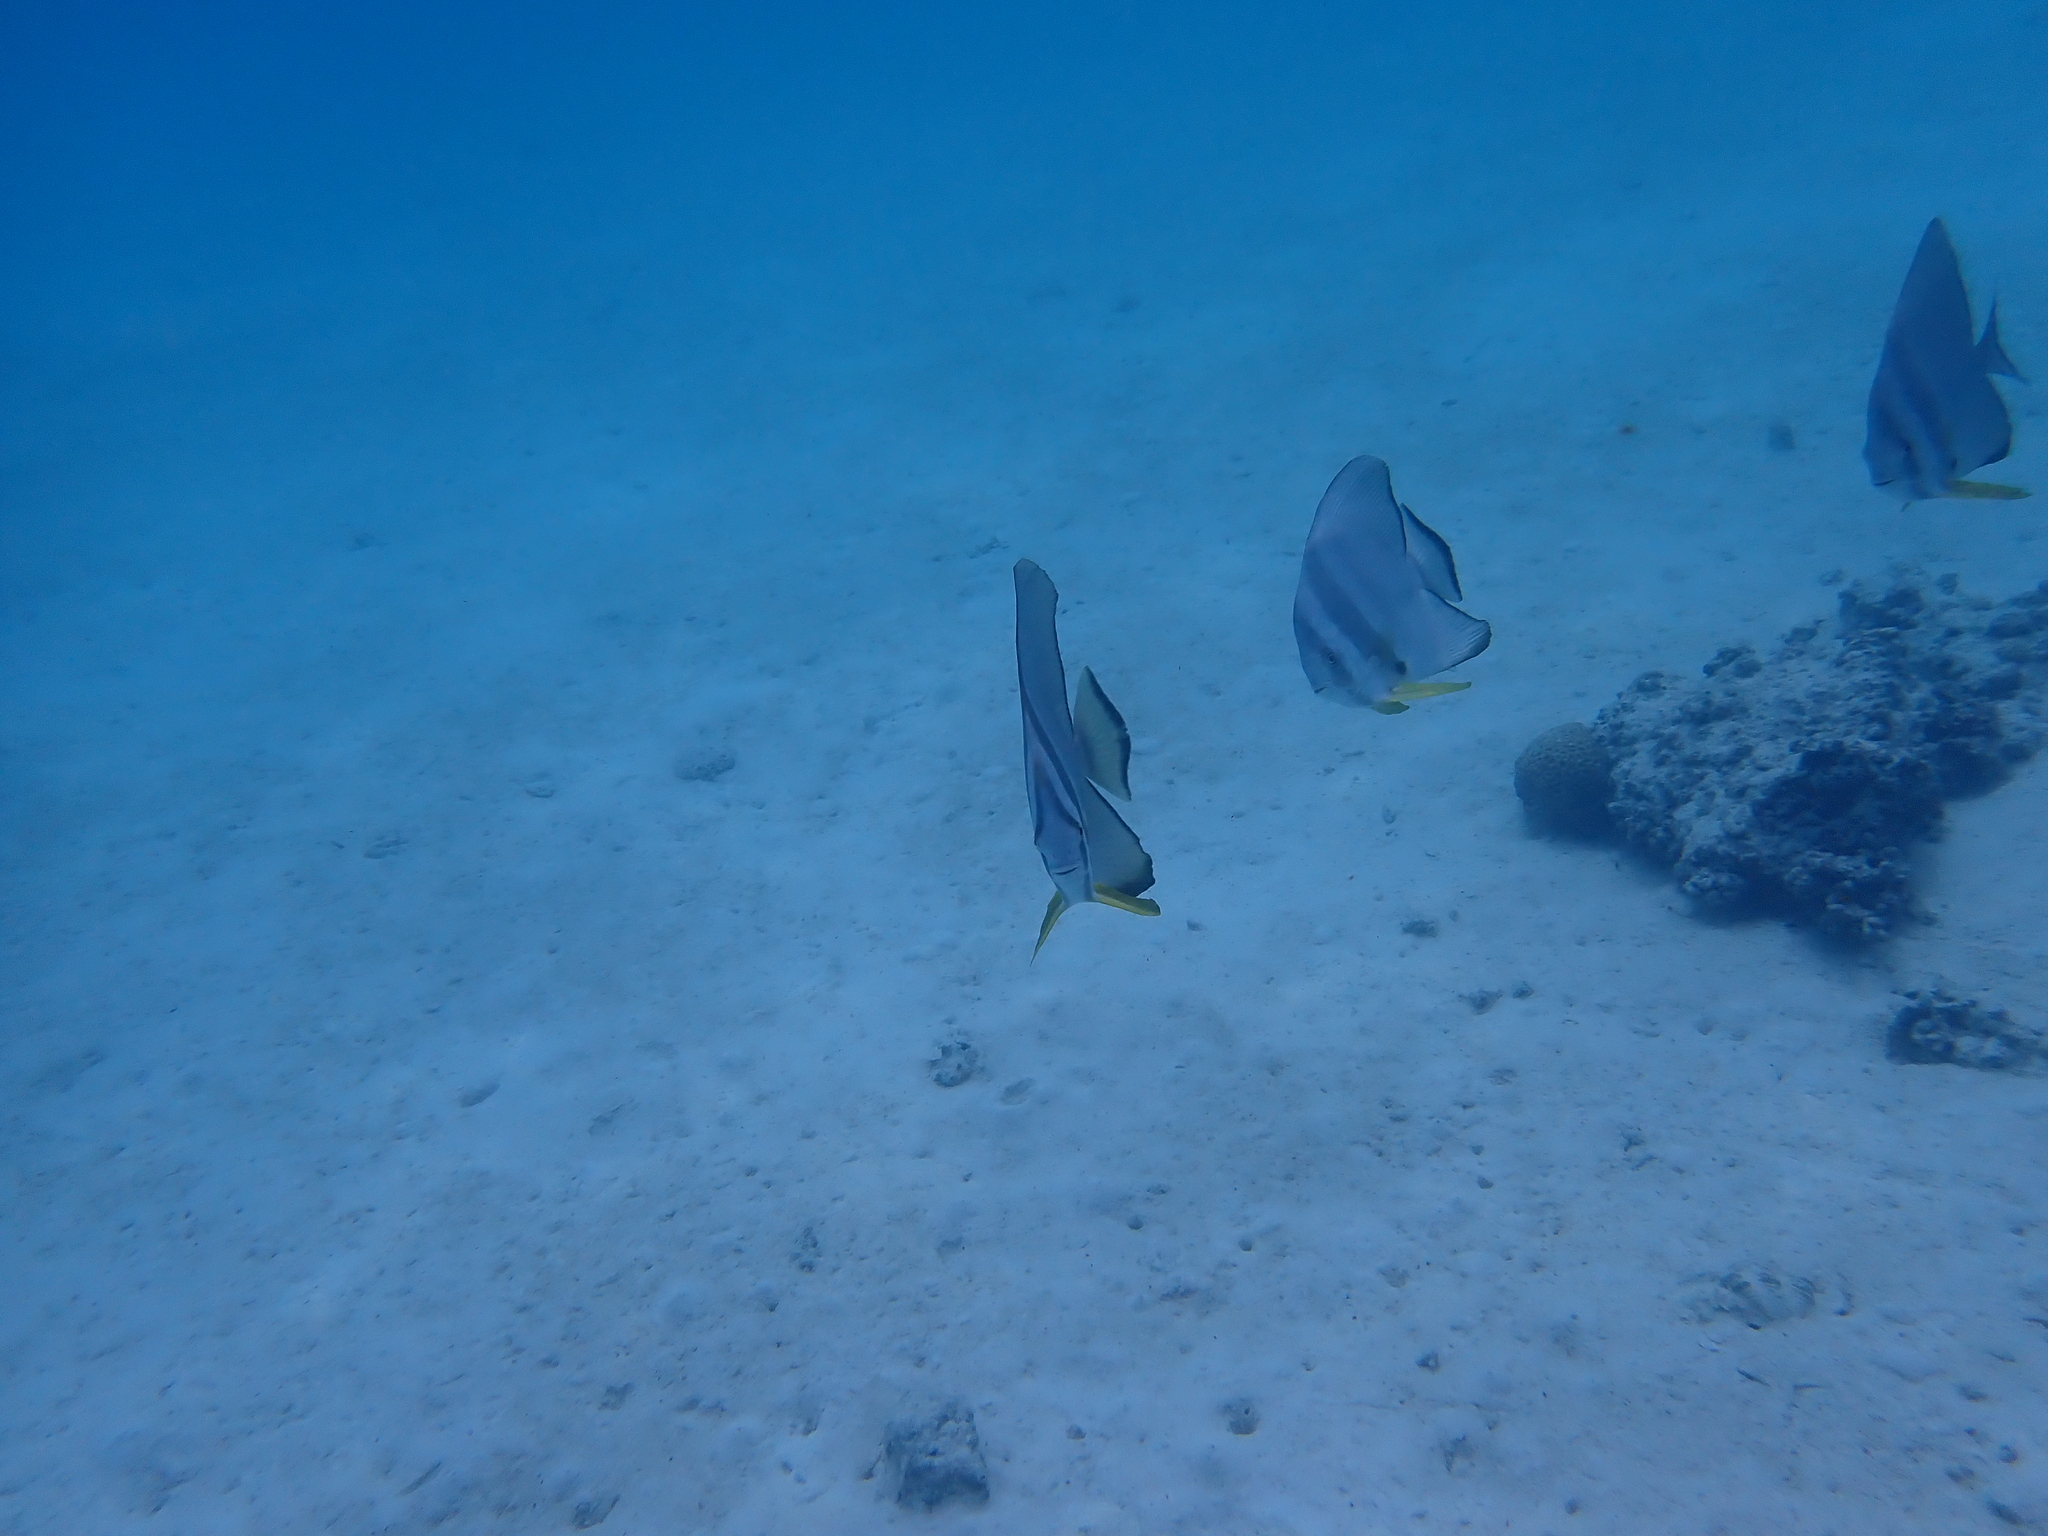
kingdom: Animalia
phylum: Chordata
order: Perciformes
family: Ephippidae
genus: Platax
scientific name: Platax teira
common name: Longfin baitfish
